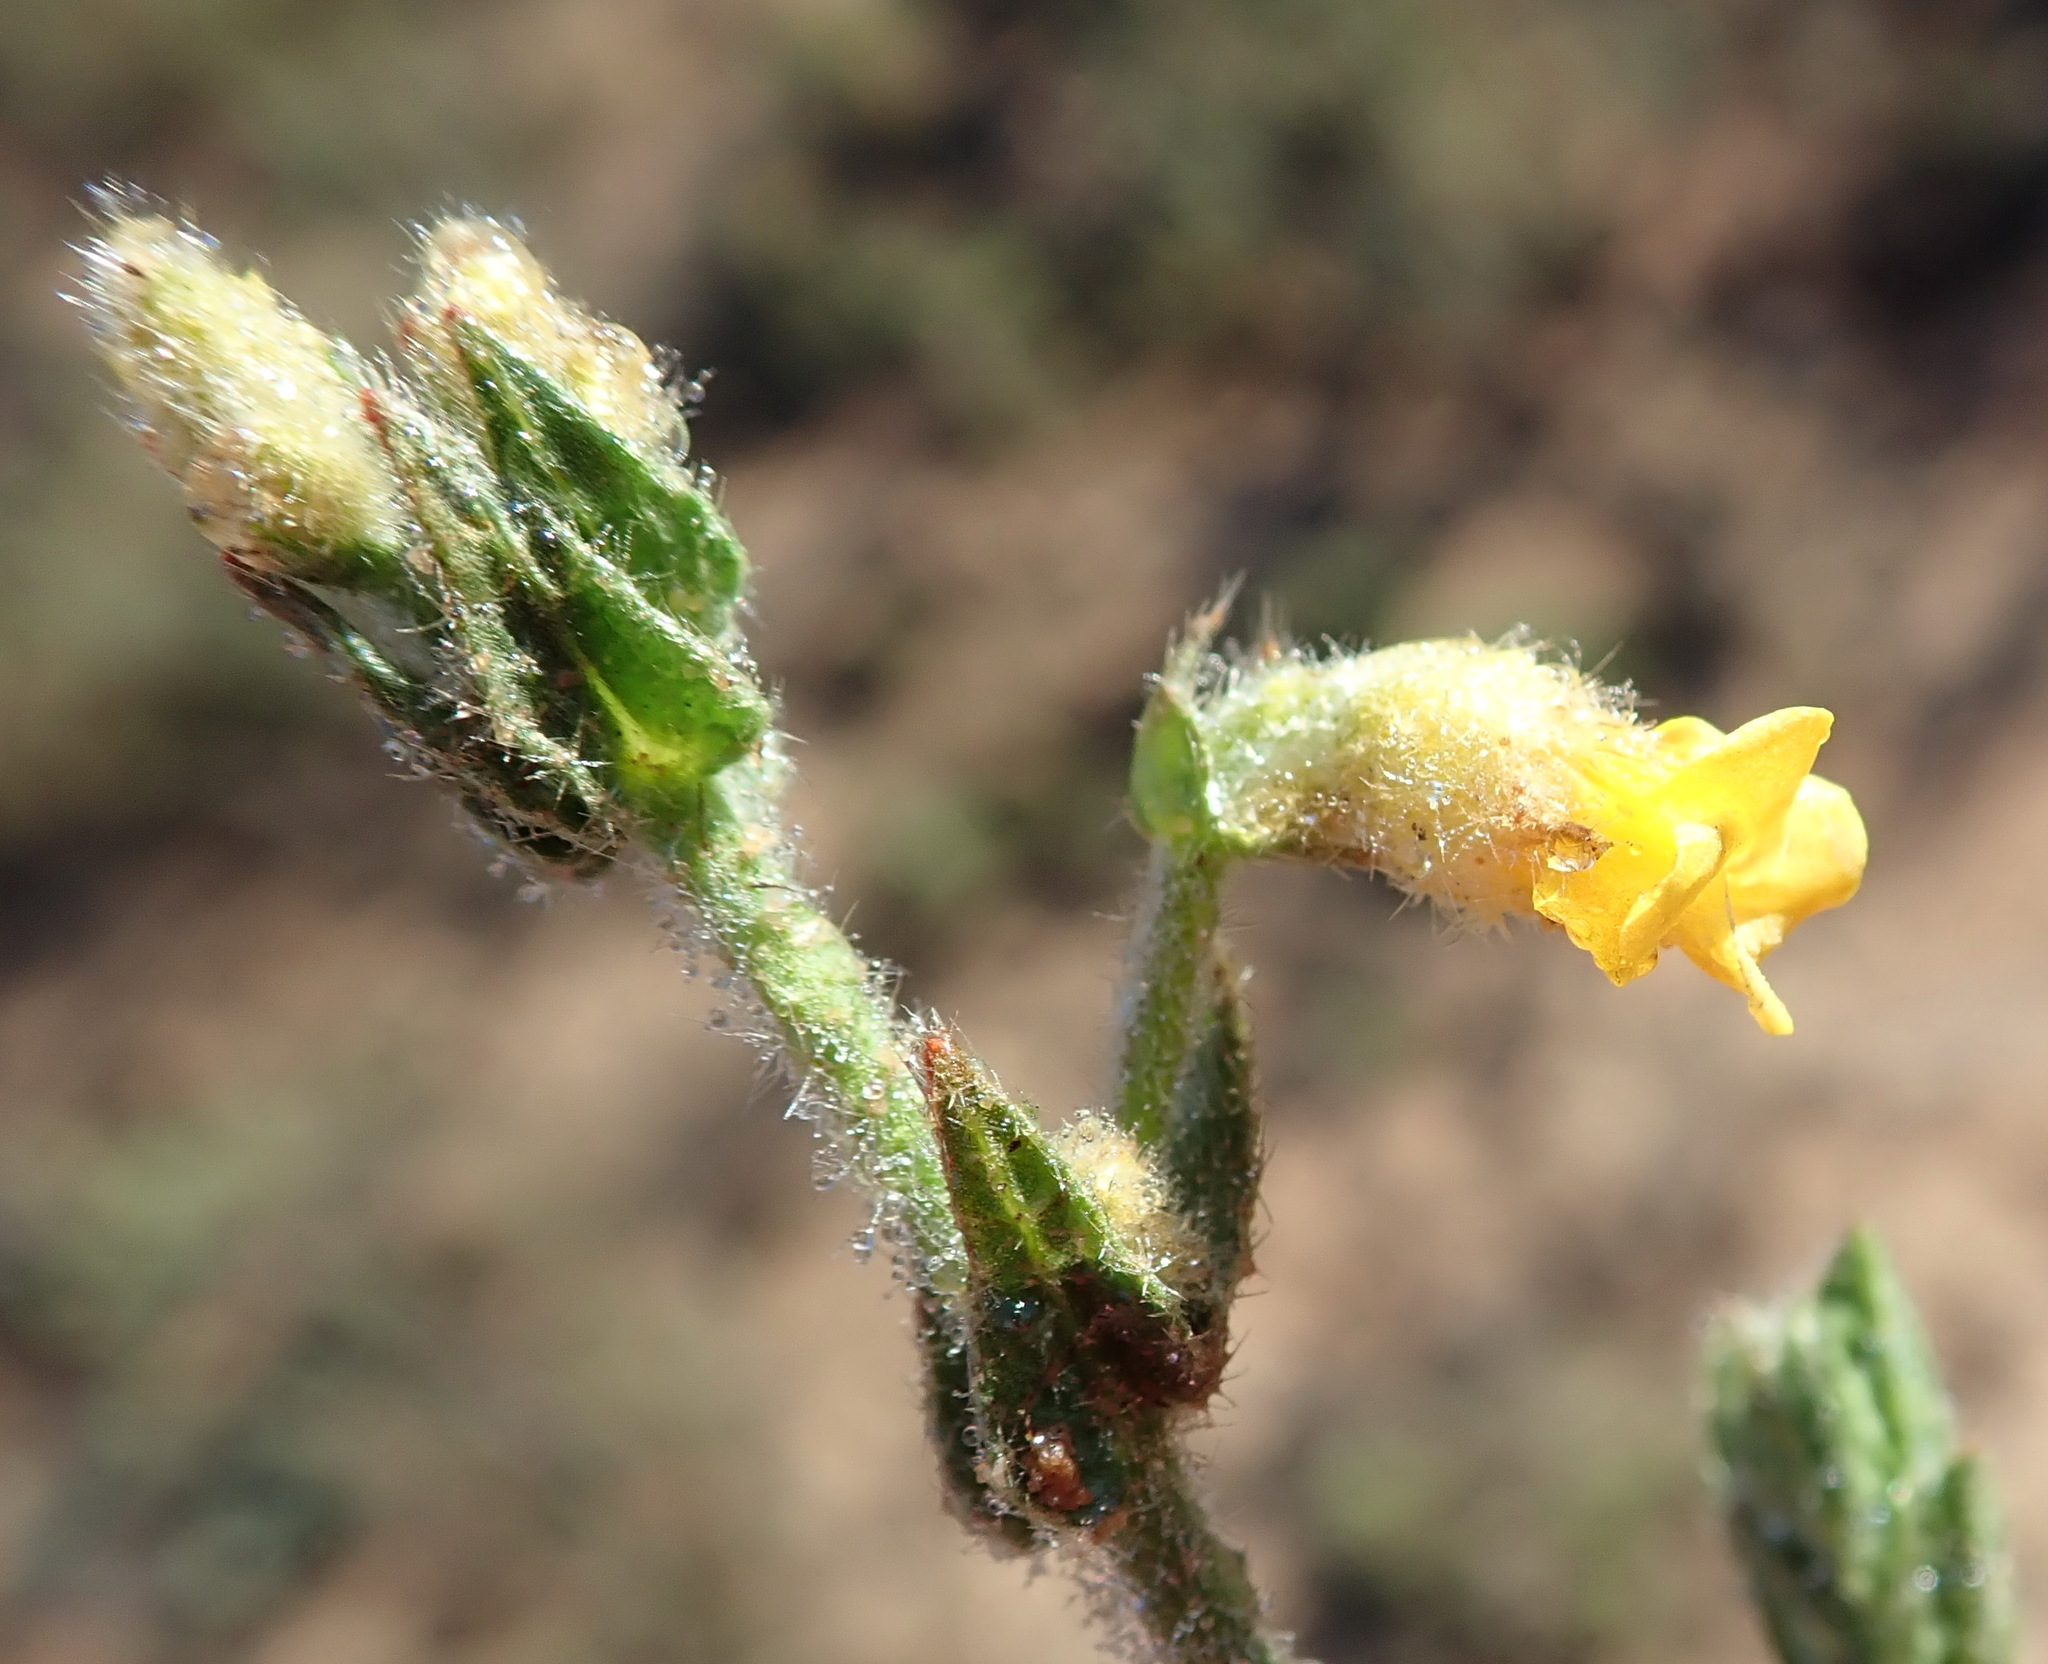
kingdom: Plantae
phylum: Tracheophyta
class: Magnoliopsida
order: Malvales
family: Malvaceae
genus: Hermannia
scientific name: Hermannia stipulacea
